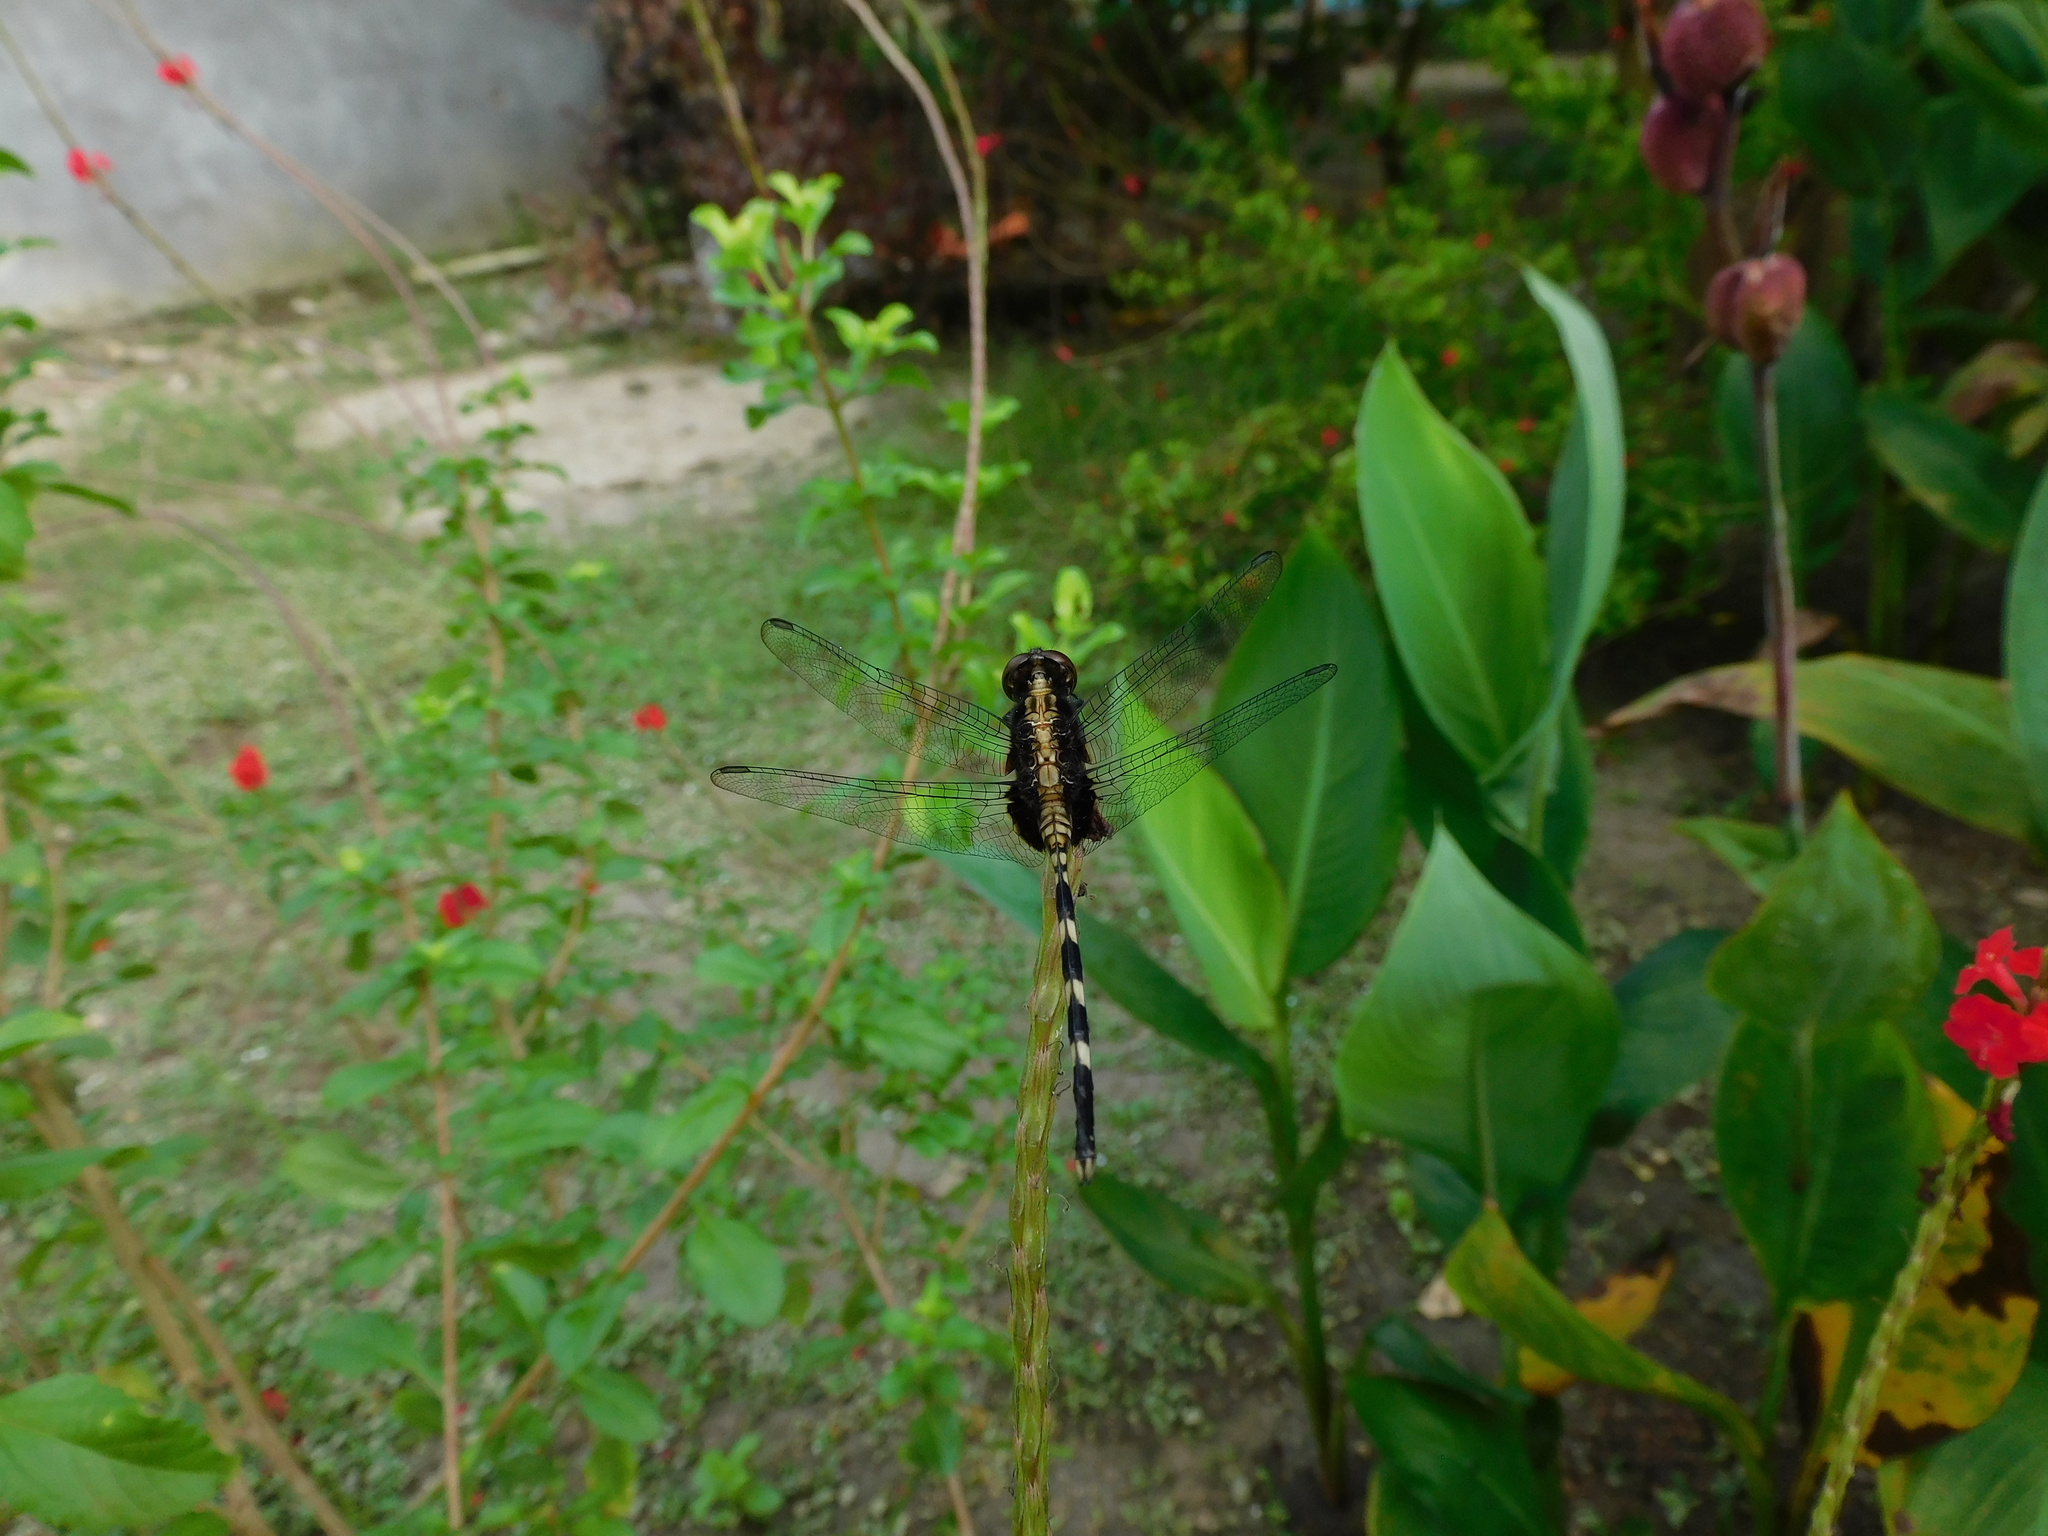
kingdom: Animalia
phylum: Arthropoda
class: Insecta
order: Odonata
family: Libellulidae
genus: Erythemis
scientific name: Erythemis plebeja
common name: Pin-tailed pondhawk
